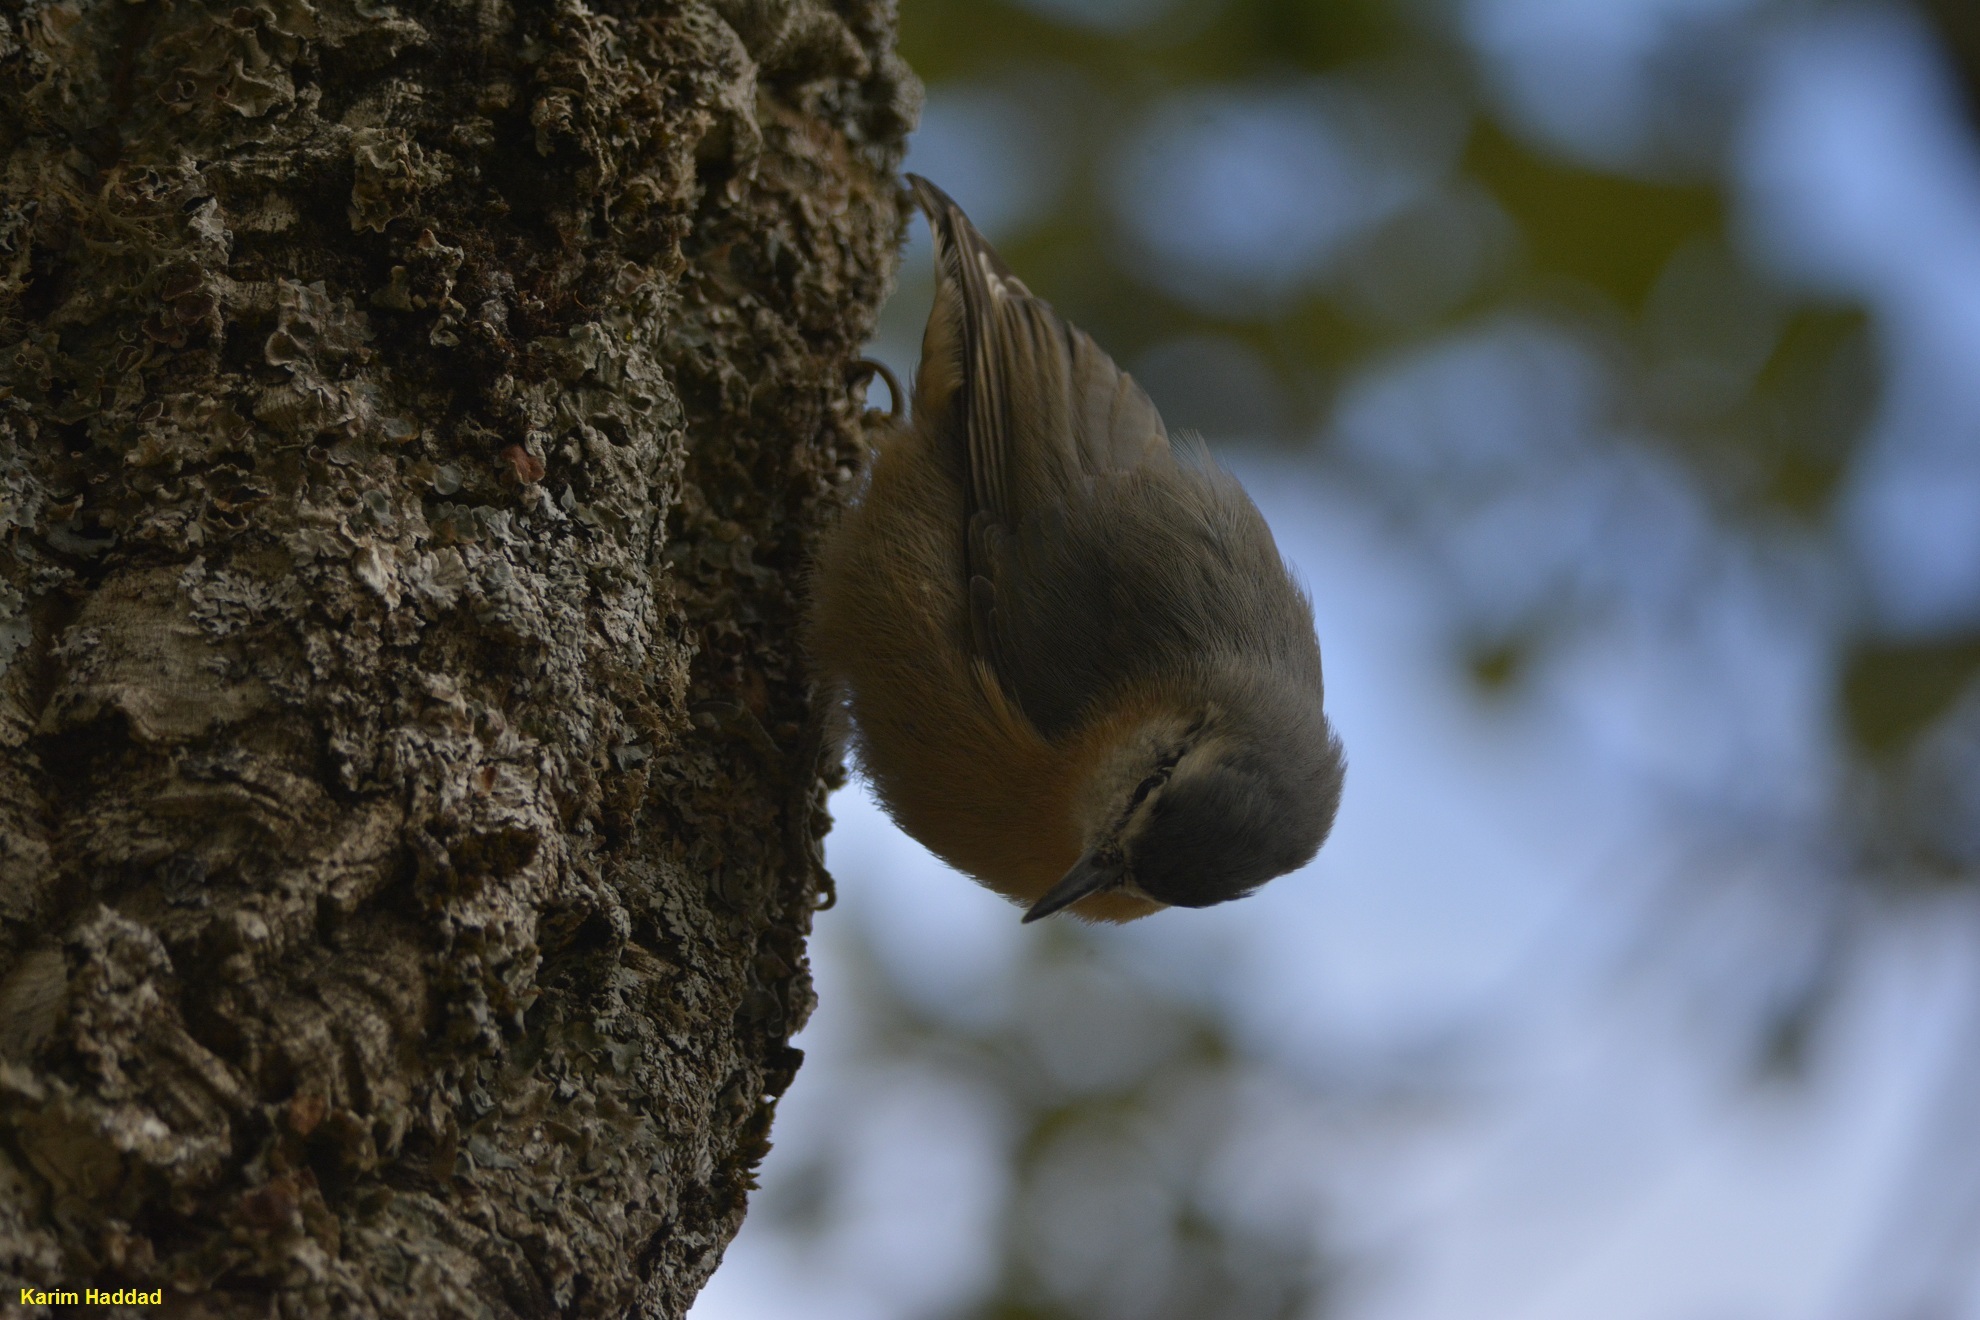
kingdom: Animalia
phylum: Chordata
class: Aves
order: Passeriformes
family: Sittidae
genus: Sitta
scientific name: Sitta ledanti
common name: Algerian nuthatch
